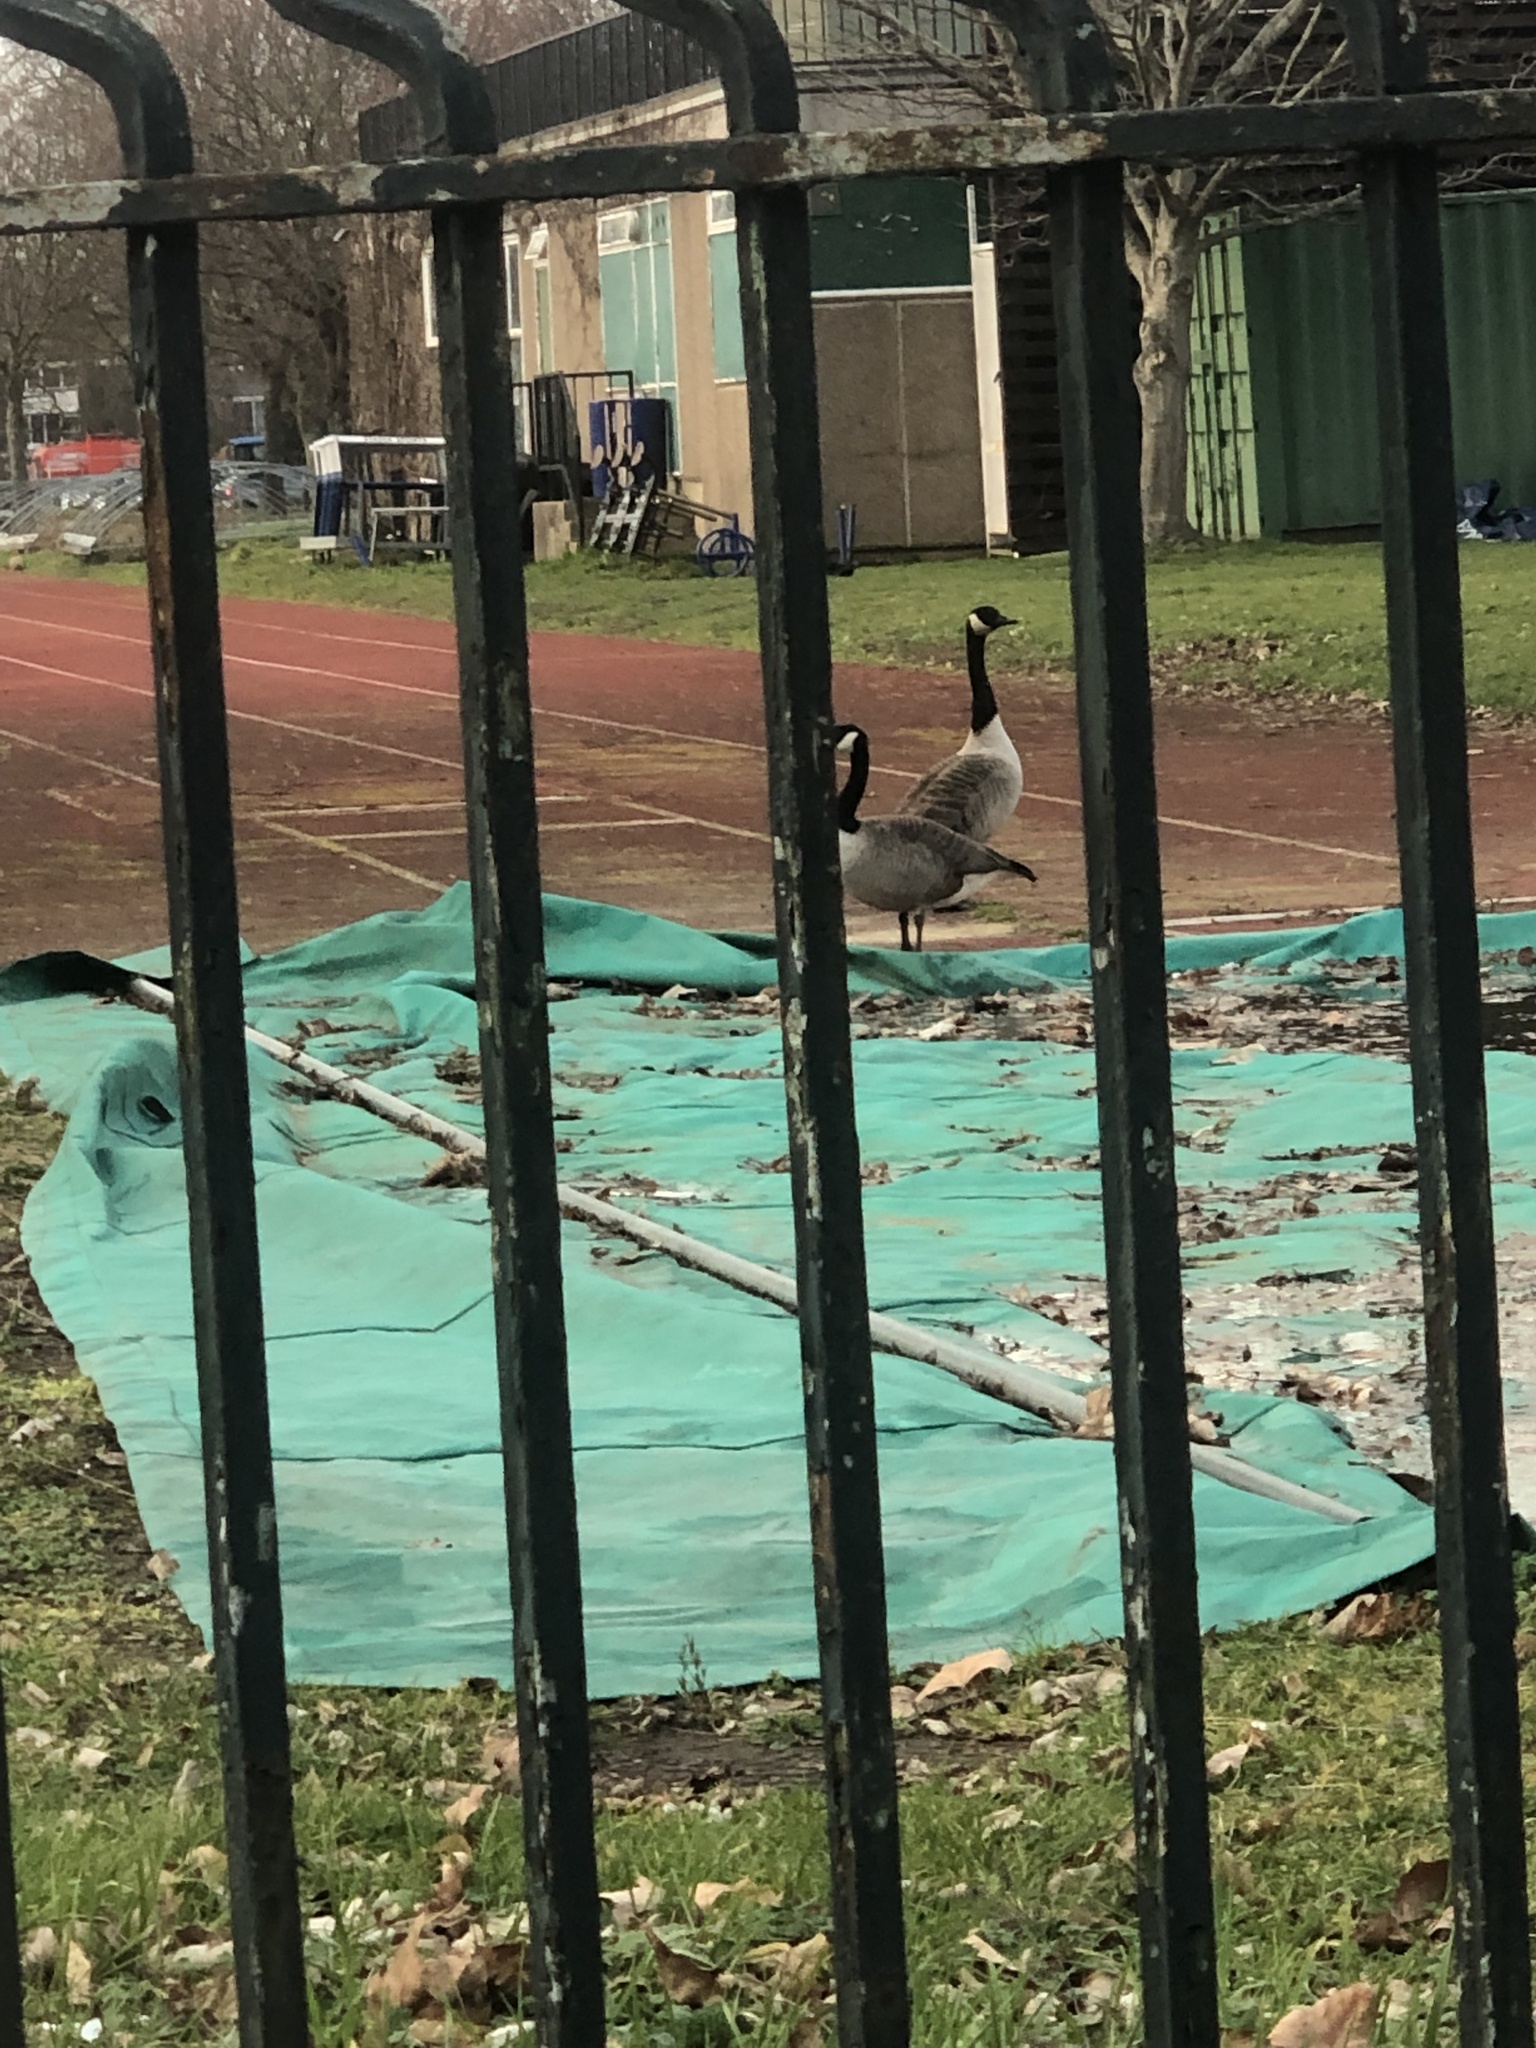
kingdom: Animalia
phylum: Chordata
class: Aves
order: Anseriformes
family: Anatidae
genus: Branta
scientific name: Branta canadensis
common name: Canada goose
